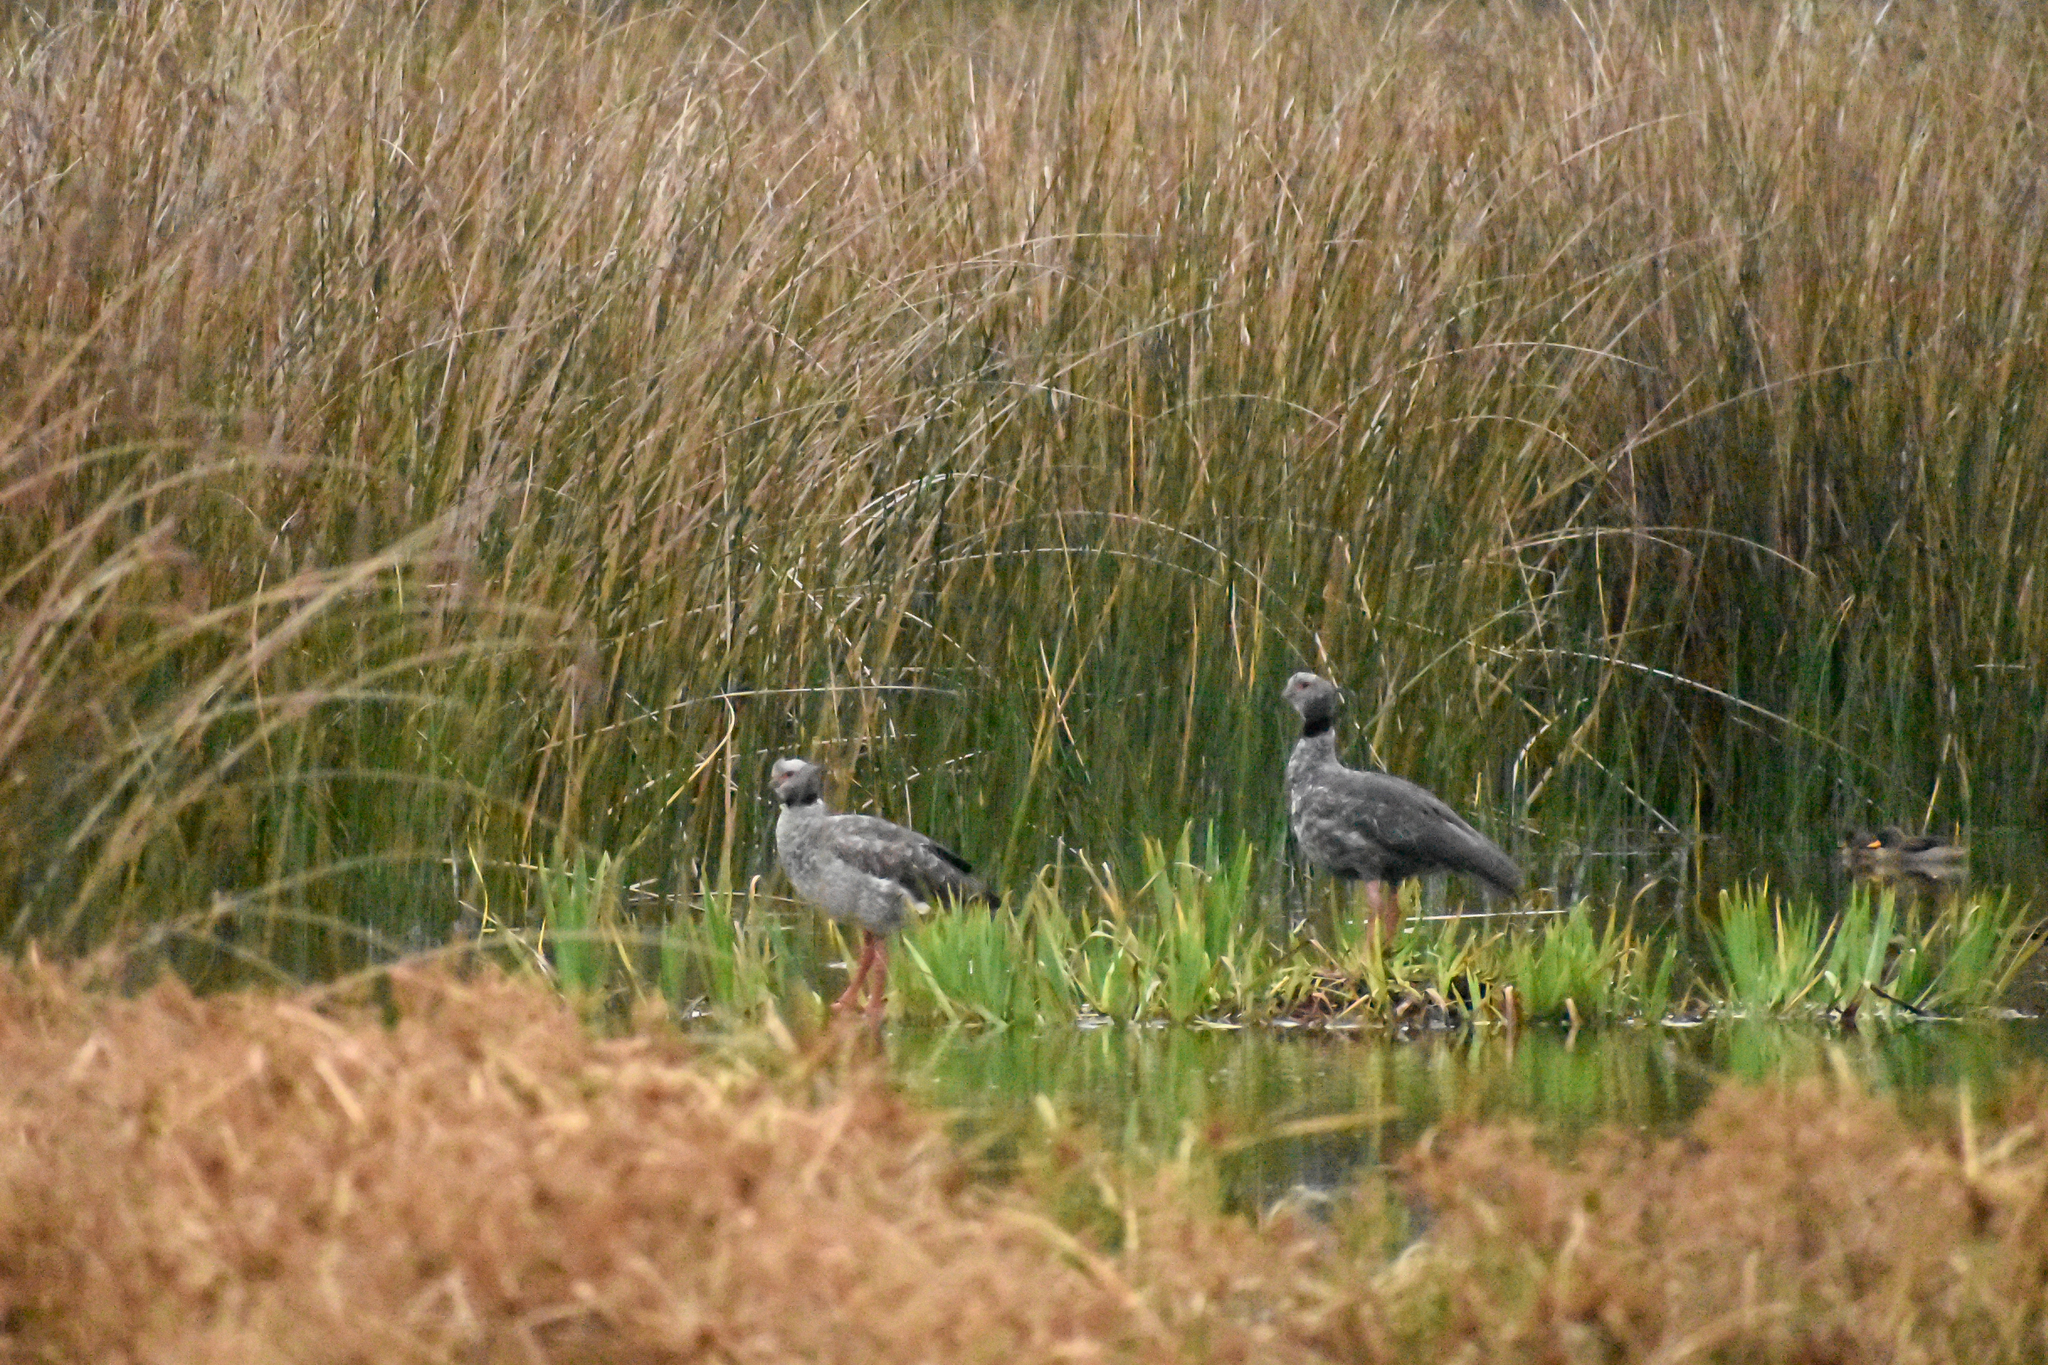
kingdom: Animalia
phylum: Chordata
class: Aves
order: Anseriformes
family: Anhimidae
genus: Chauna
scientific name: Chauna torquata
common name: Southern screamer
